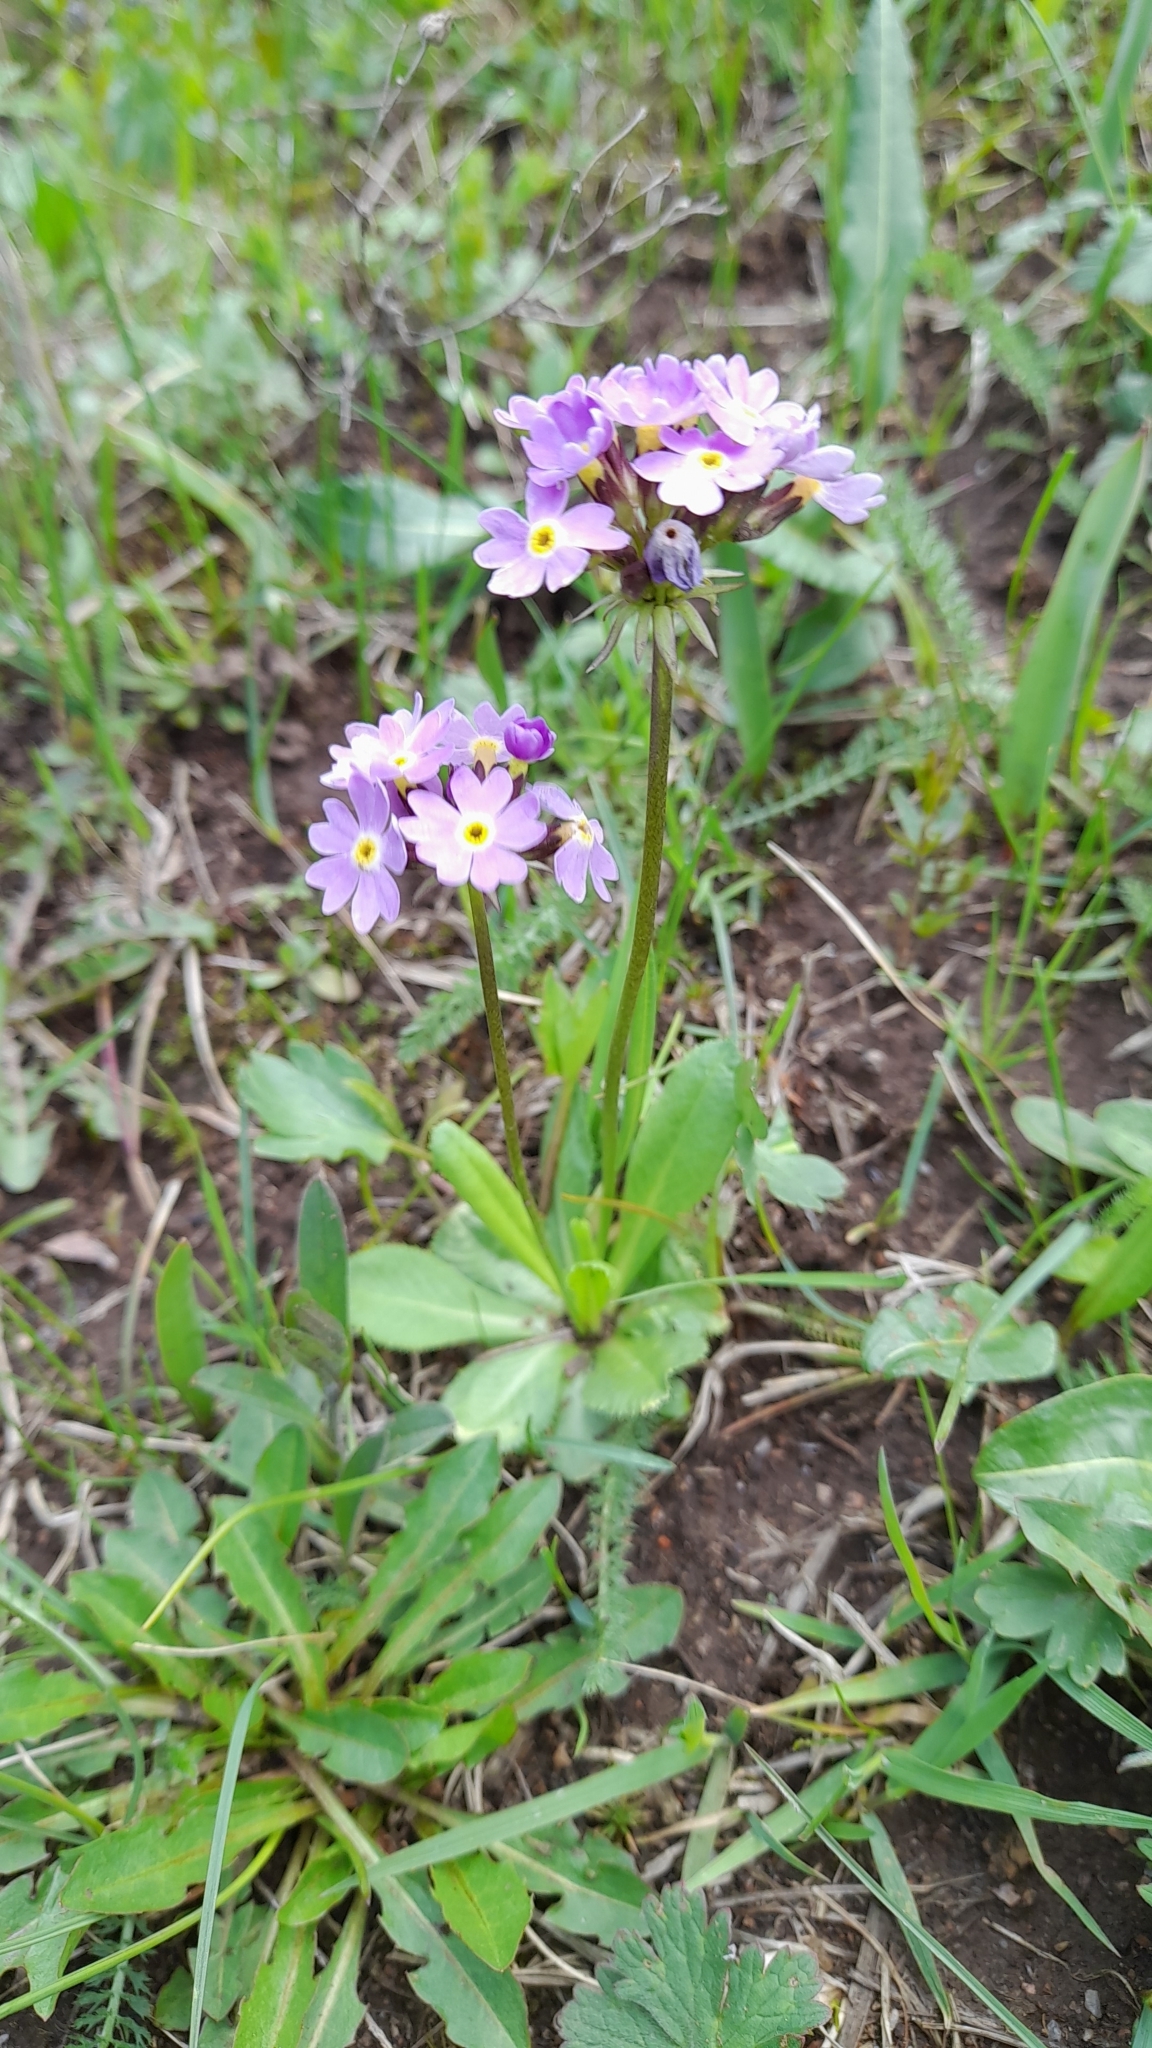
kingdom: Plantae
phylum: Tracheophyta
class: Magnoliopsida
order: Ericales
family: Primulaceae
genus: Primula
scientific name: Primula algida
